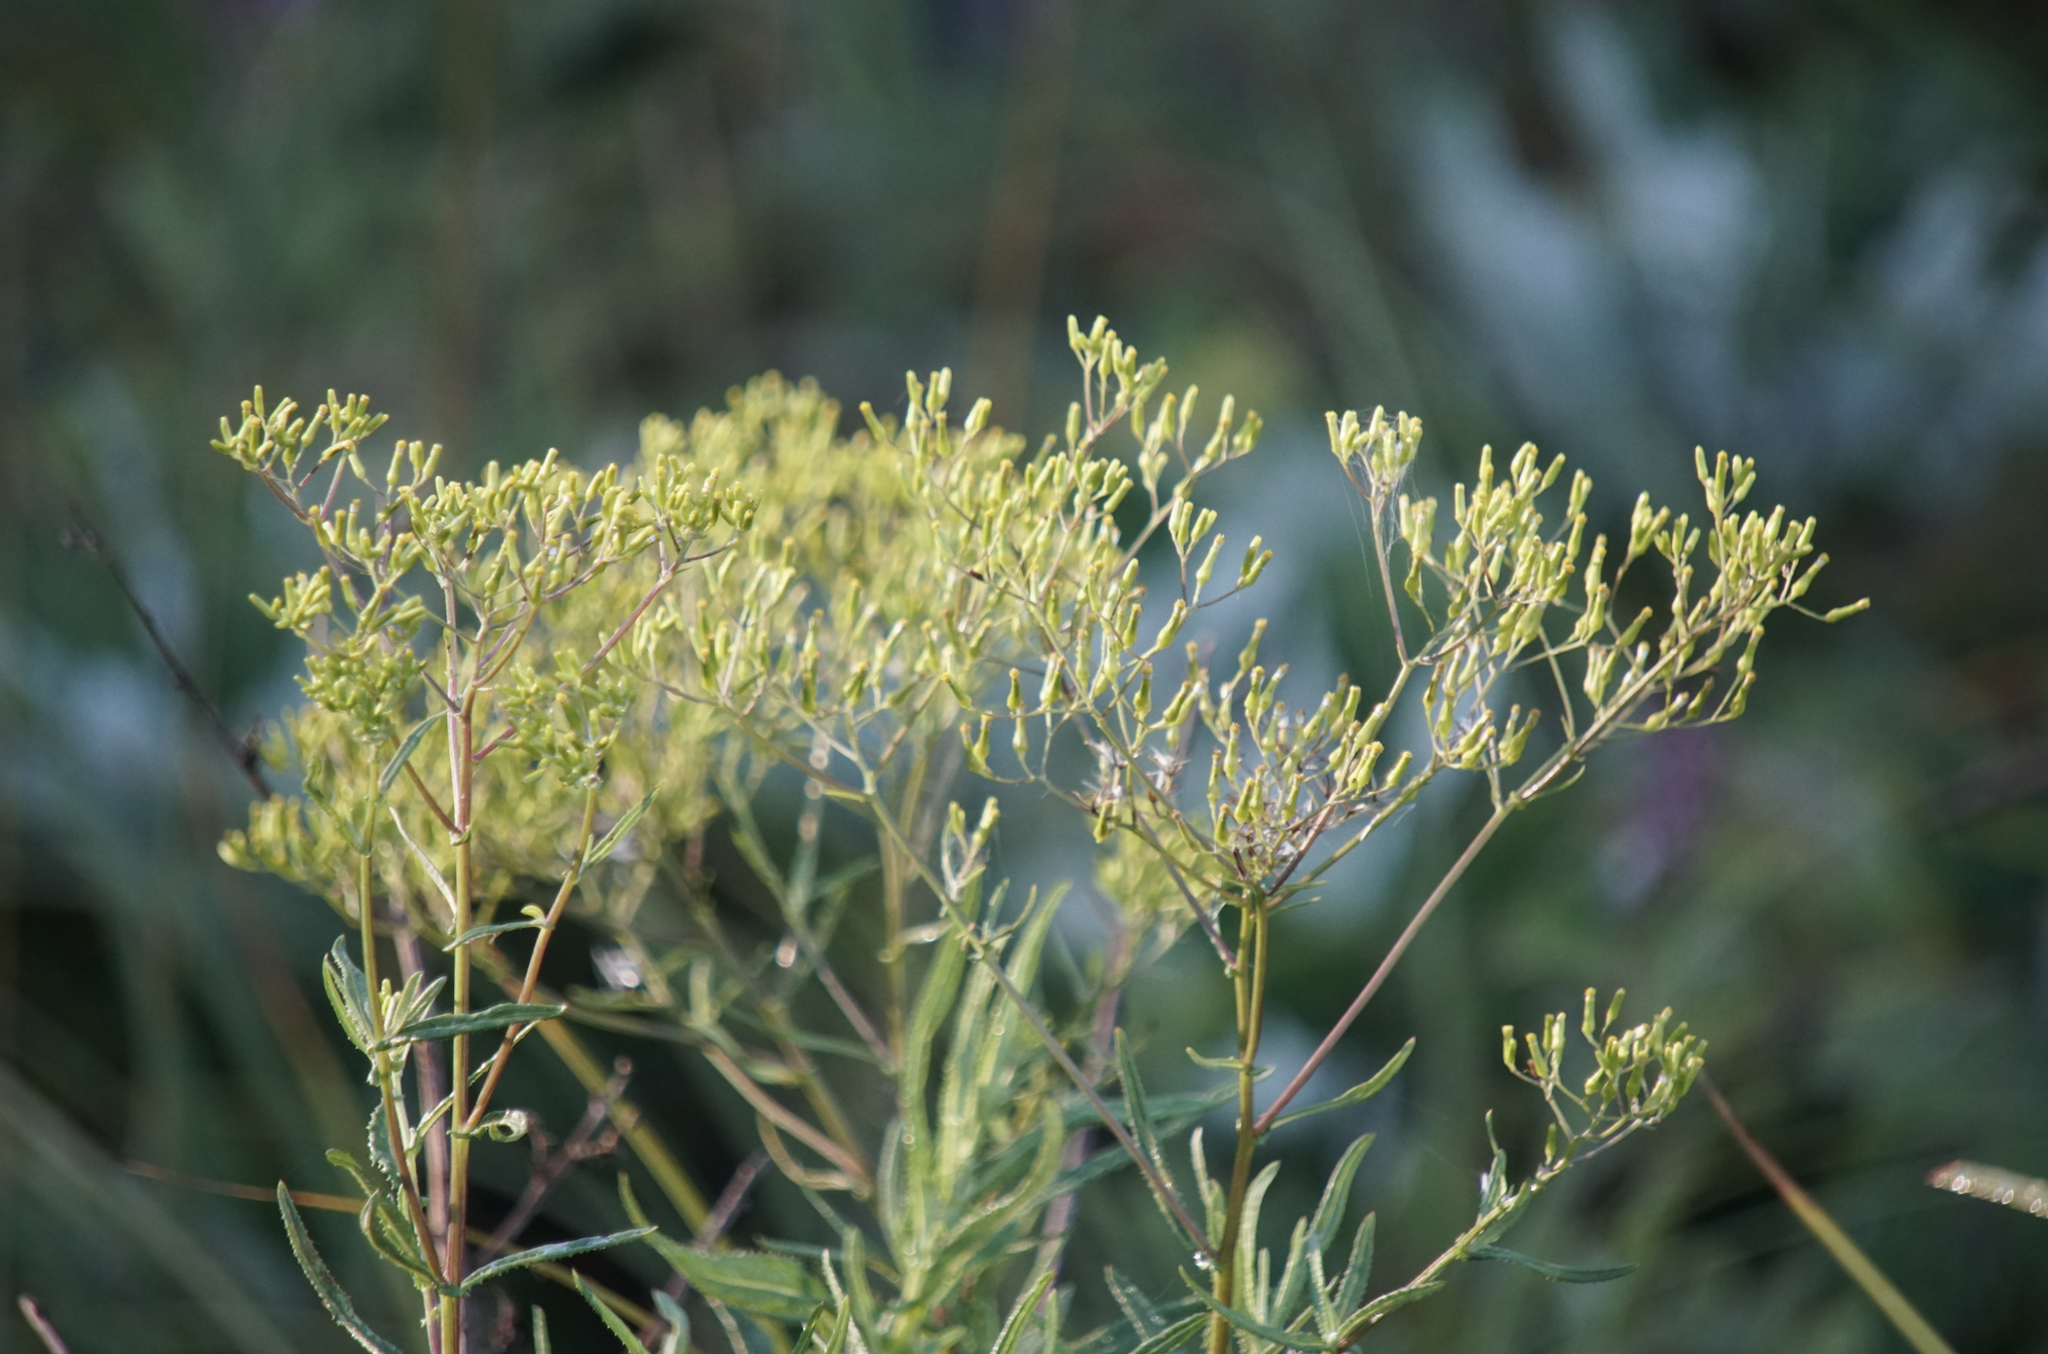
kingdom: Plantae
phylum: Tracheophyta
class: Magnoliopsida
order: Asterales
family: Asteraceae
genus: Senecio
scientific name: Senecio minimus
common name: Toothed fireweed
